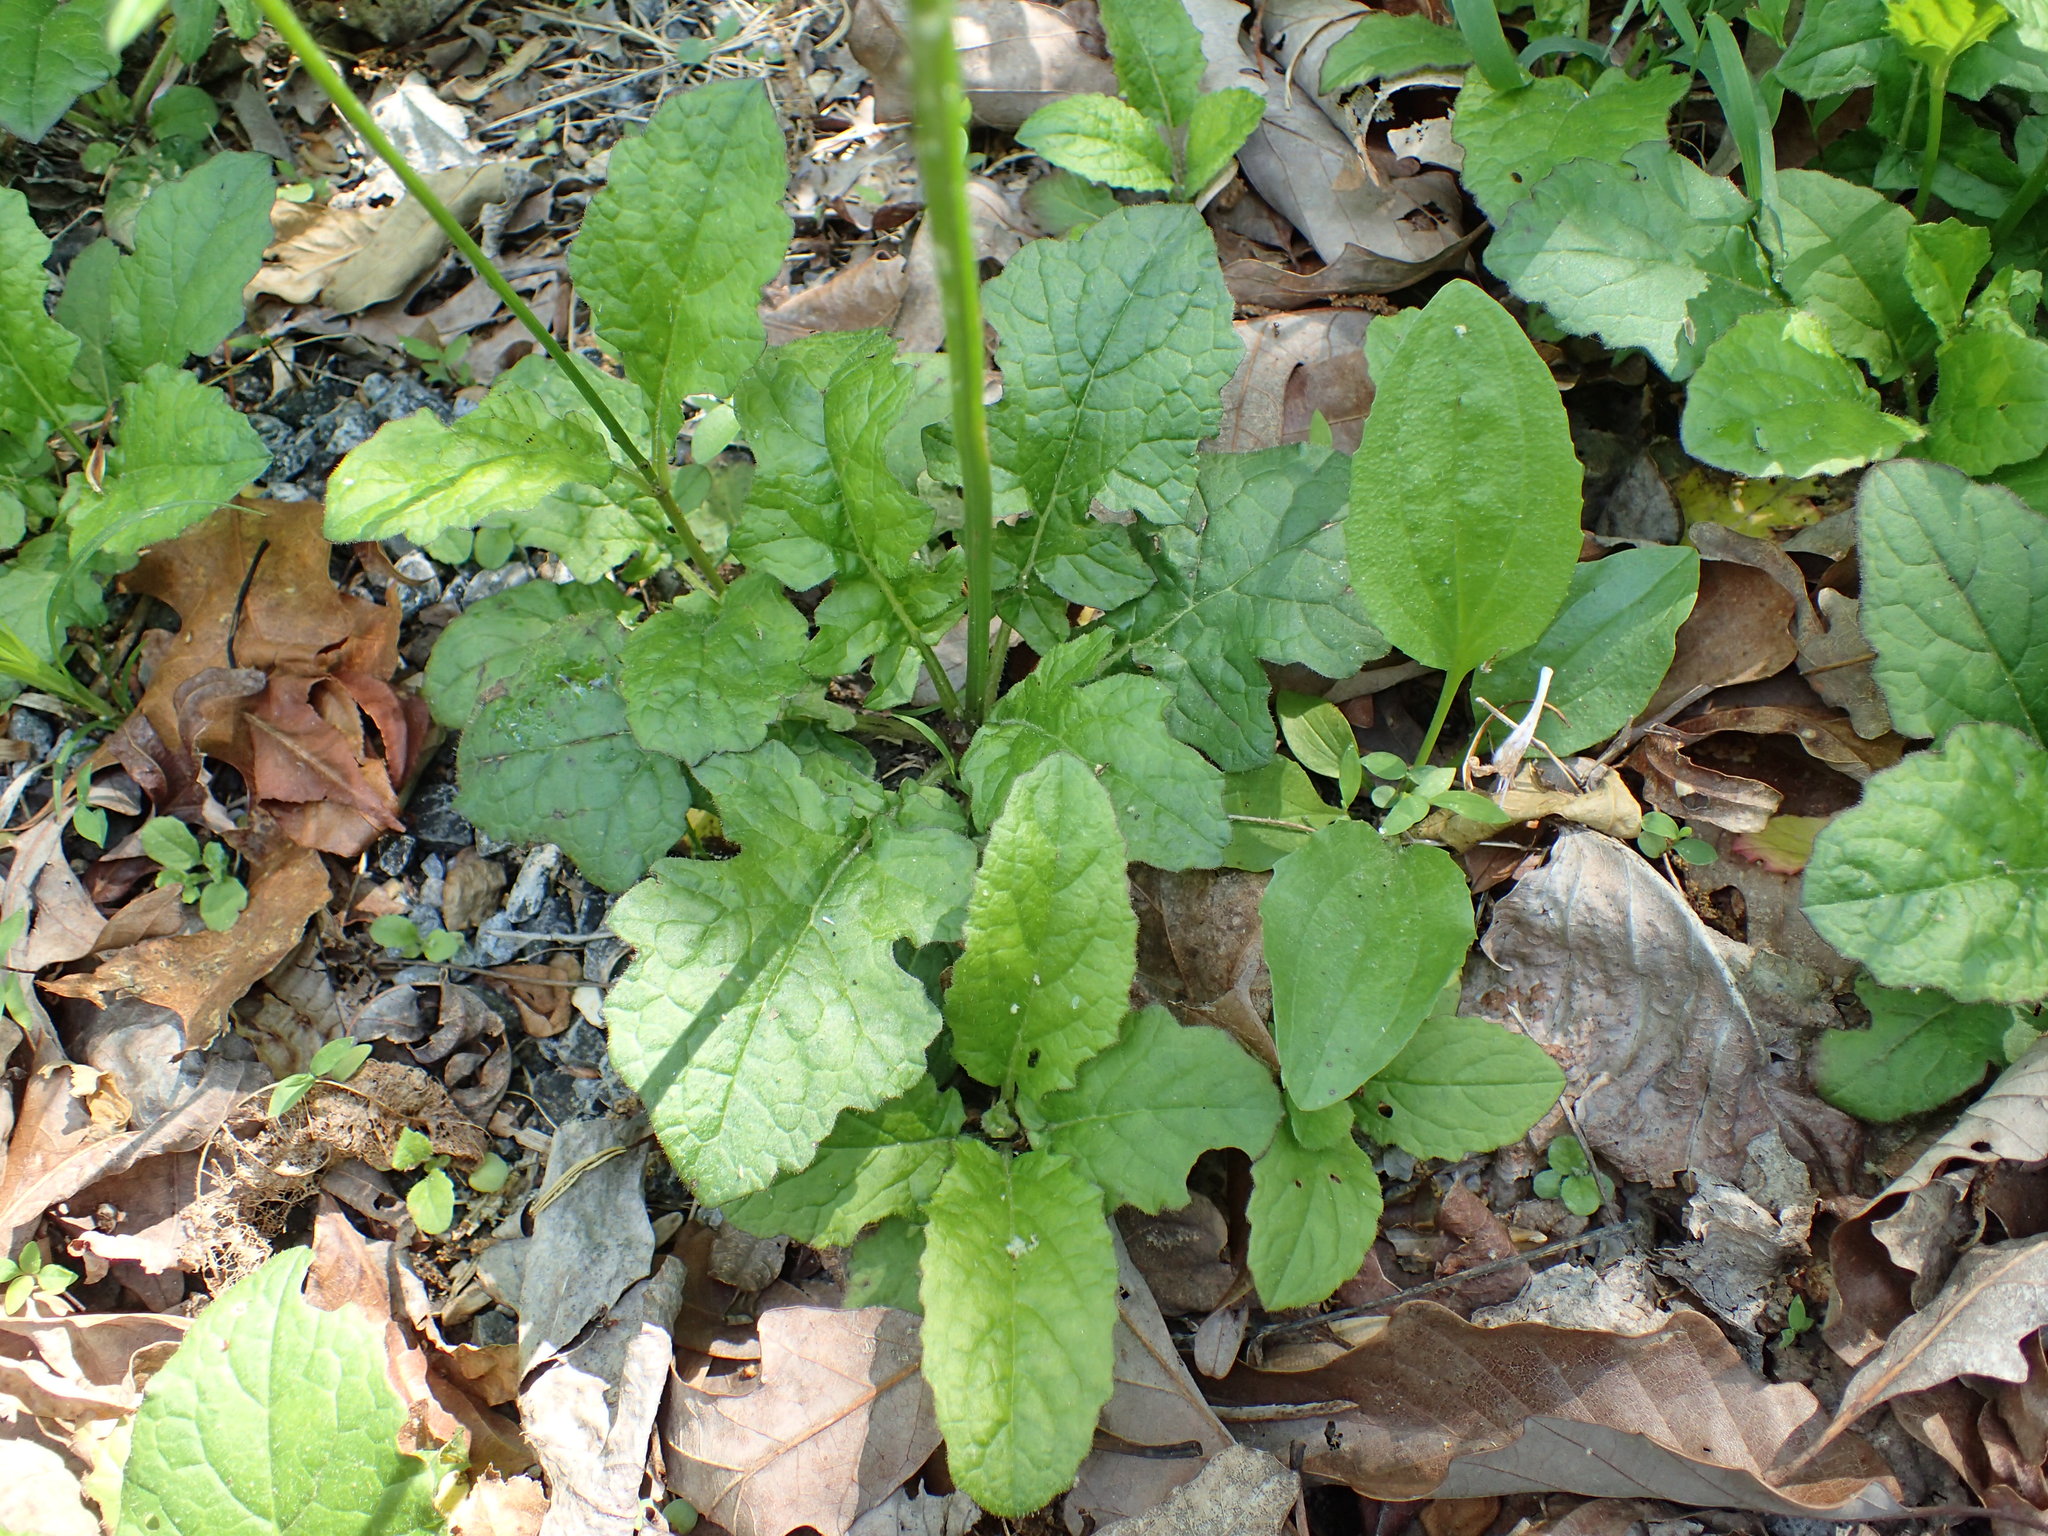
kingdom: Plantae
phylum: Tracheophyta
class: Magnoliopsida
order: Lamiales
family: Lamiaceae
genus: Salvia
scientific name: Salvia lyrata
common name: Cancerweed
